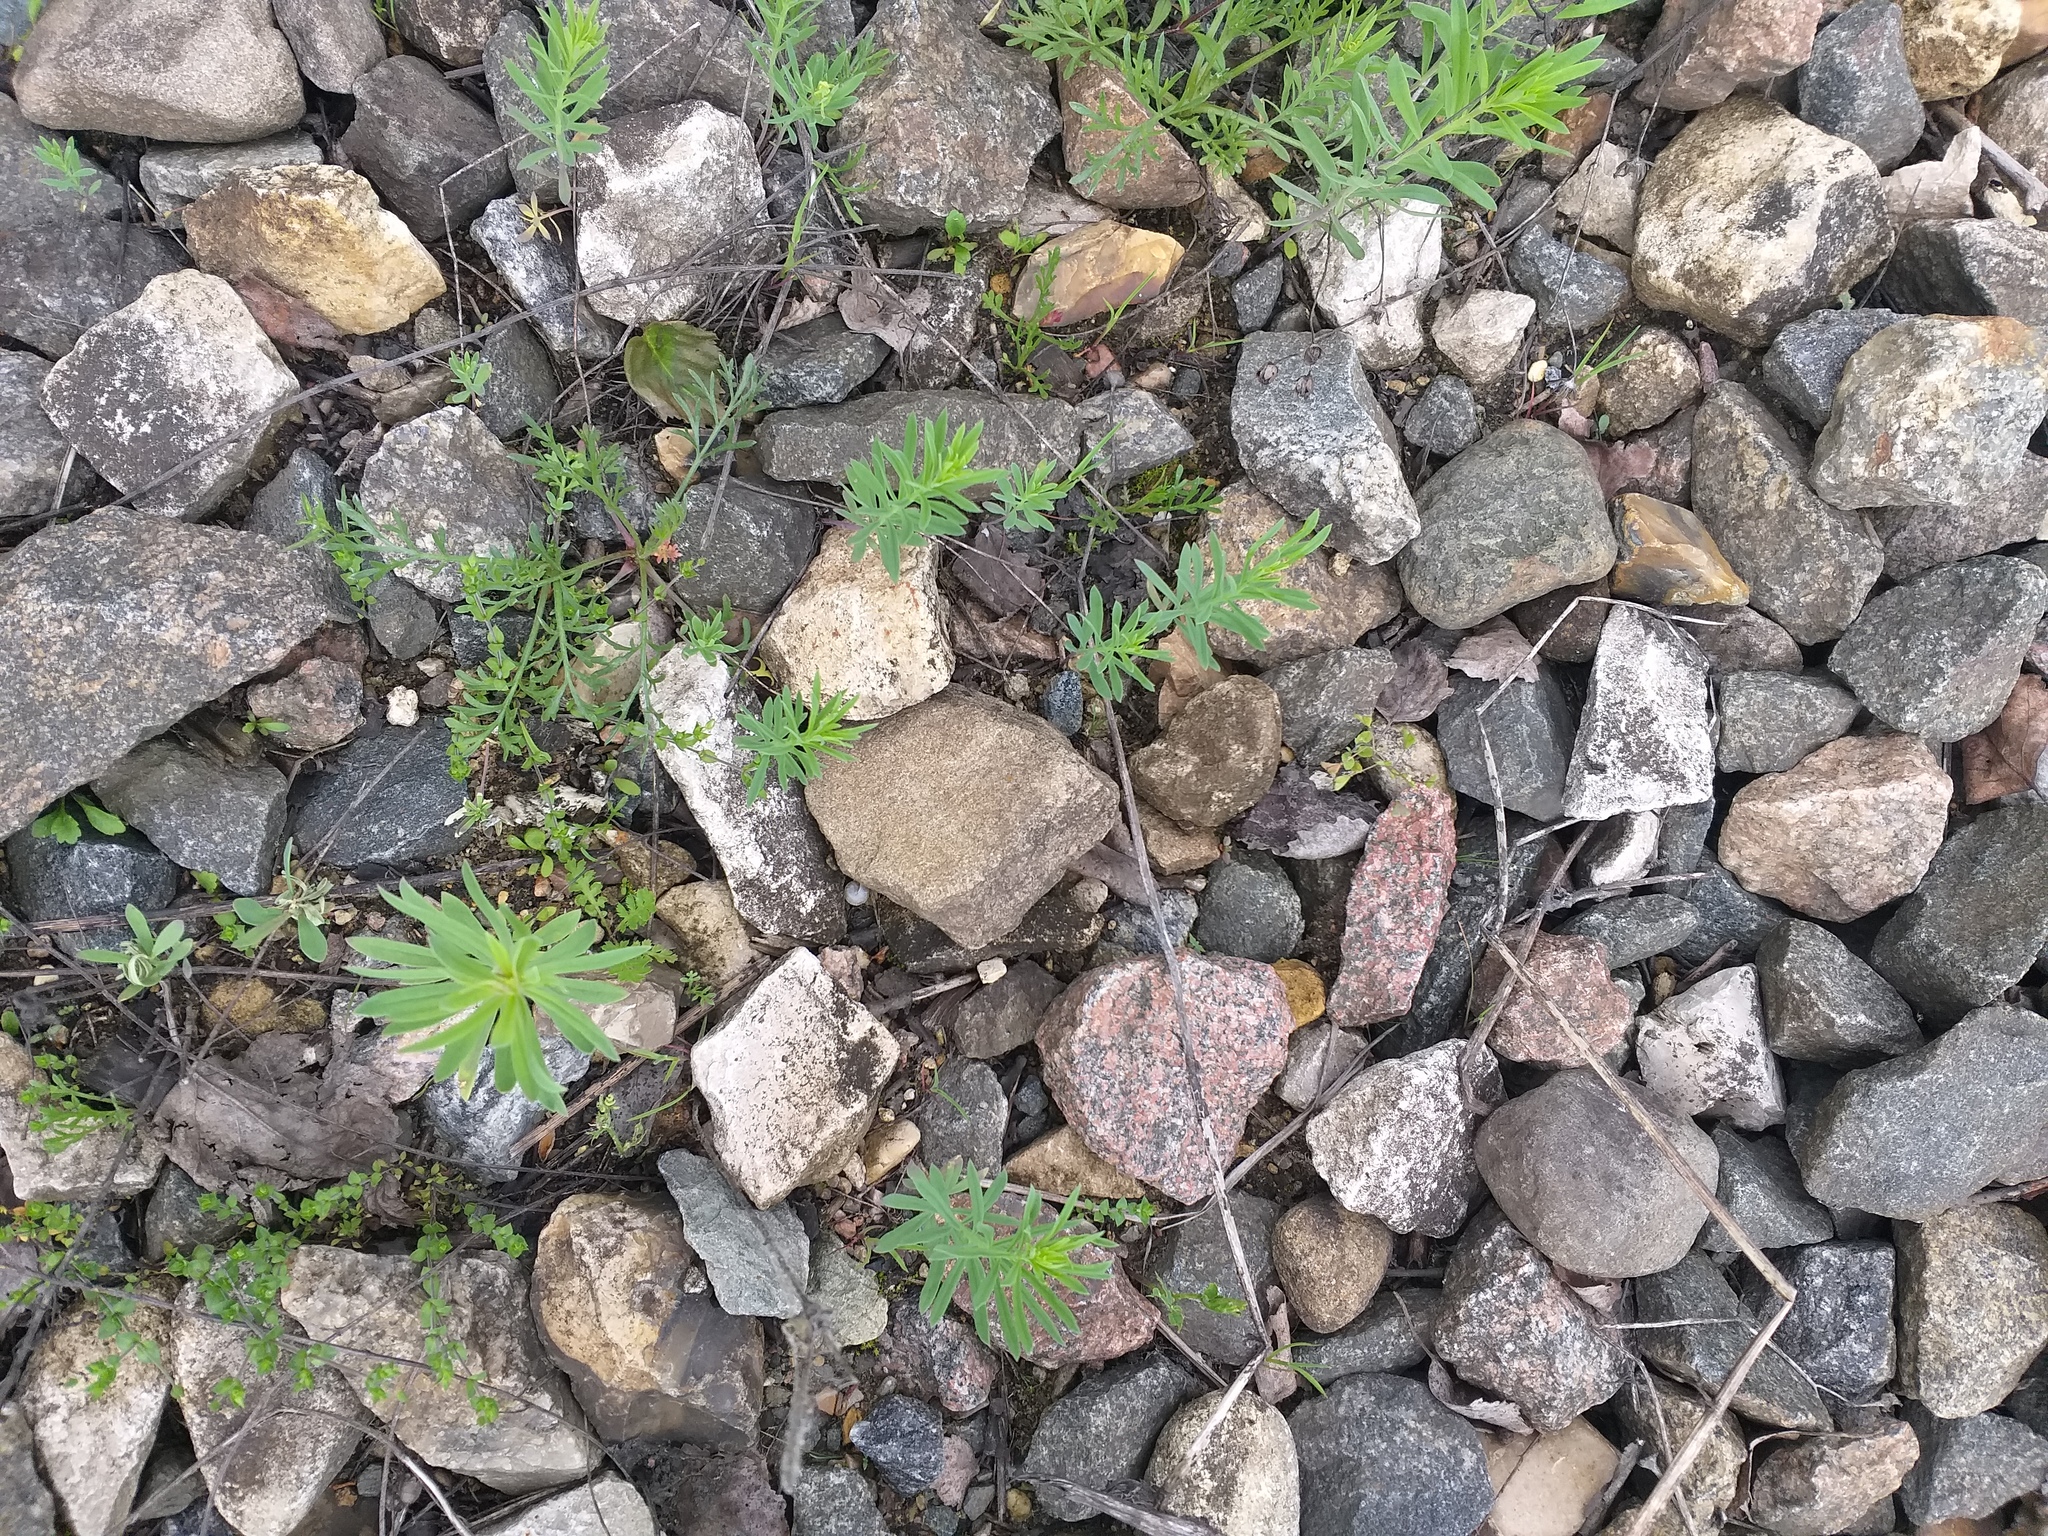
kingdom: Plantae
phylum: Tracheophyta
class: Magnoliopsida
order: Lamiales
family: Plantaginaceae
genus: Linaria
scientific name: Linaria vulgaris
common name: Butter and eggs
